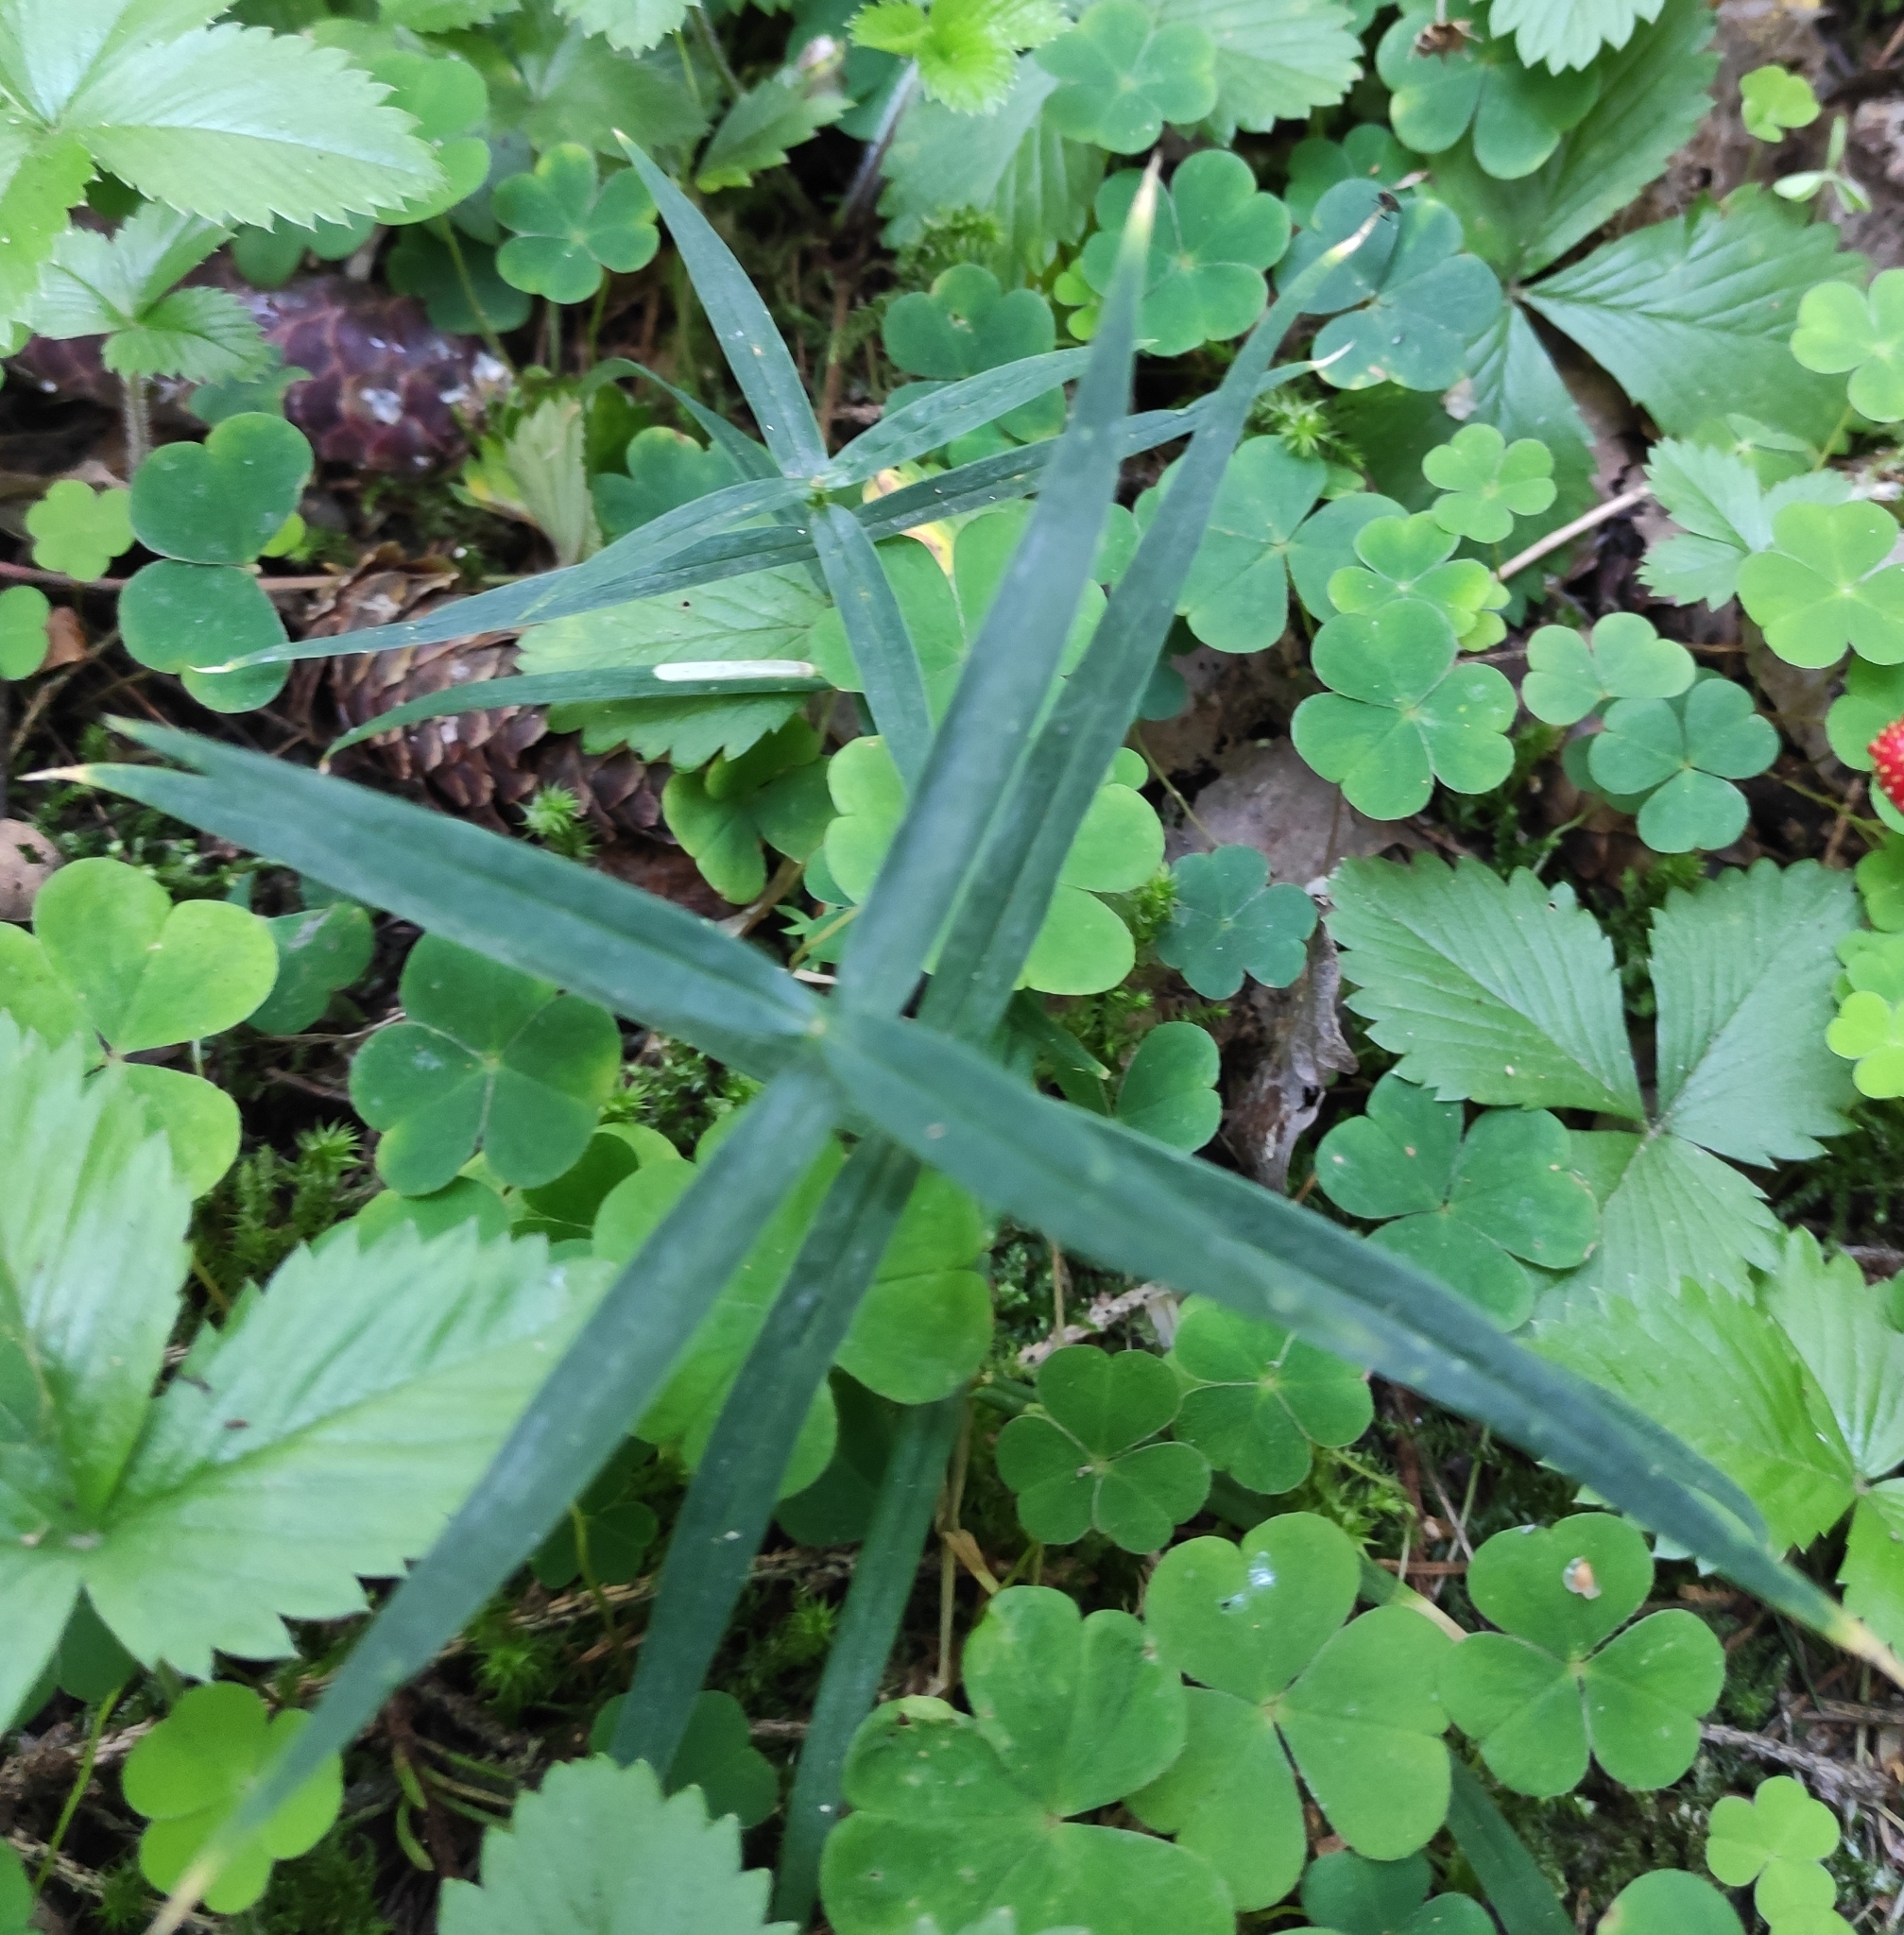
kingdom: Plantae
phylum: Tracheophyta
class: Magnoliopsida
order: Caryophyllales
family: Caryophyllaceae
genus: Rabelera
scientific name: Rabelera holostea
